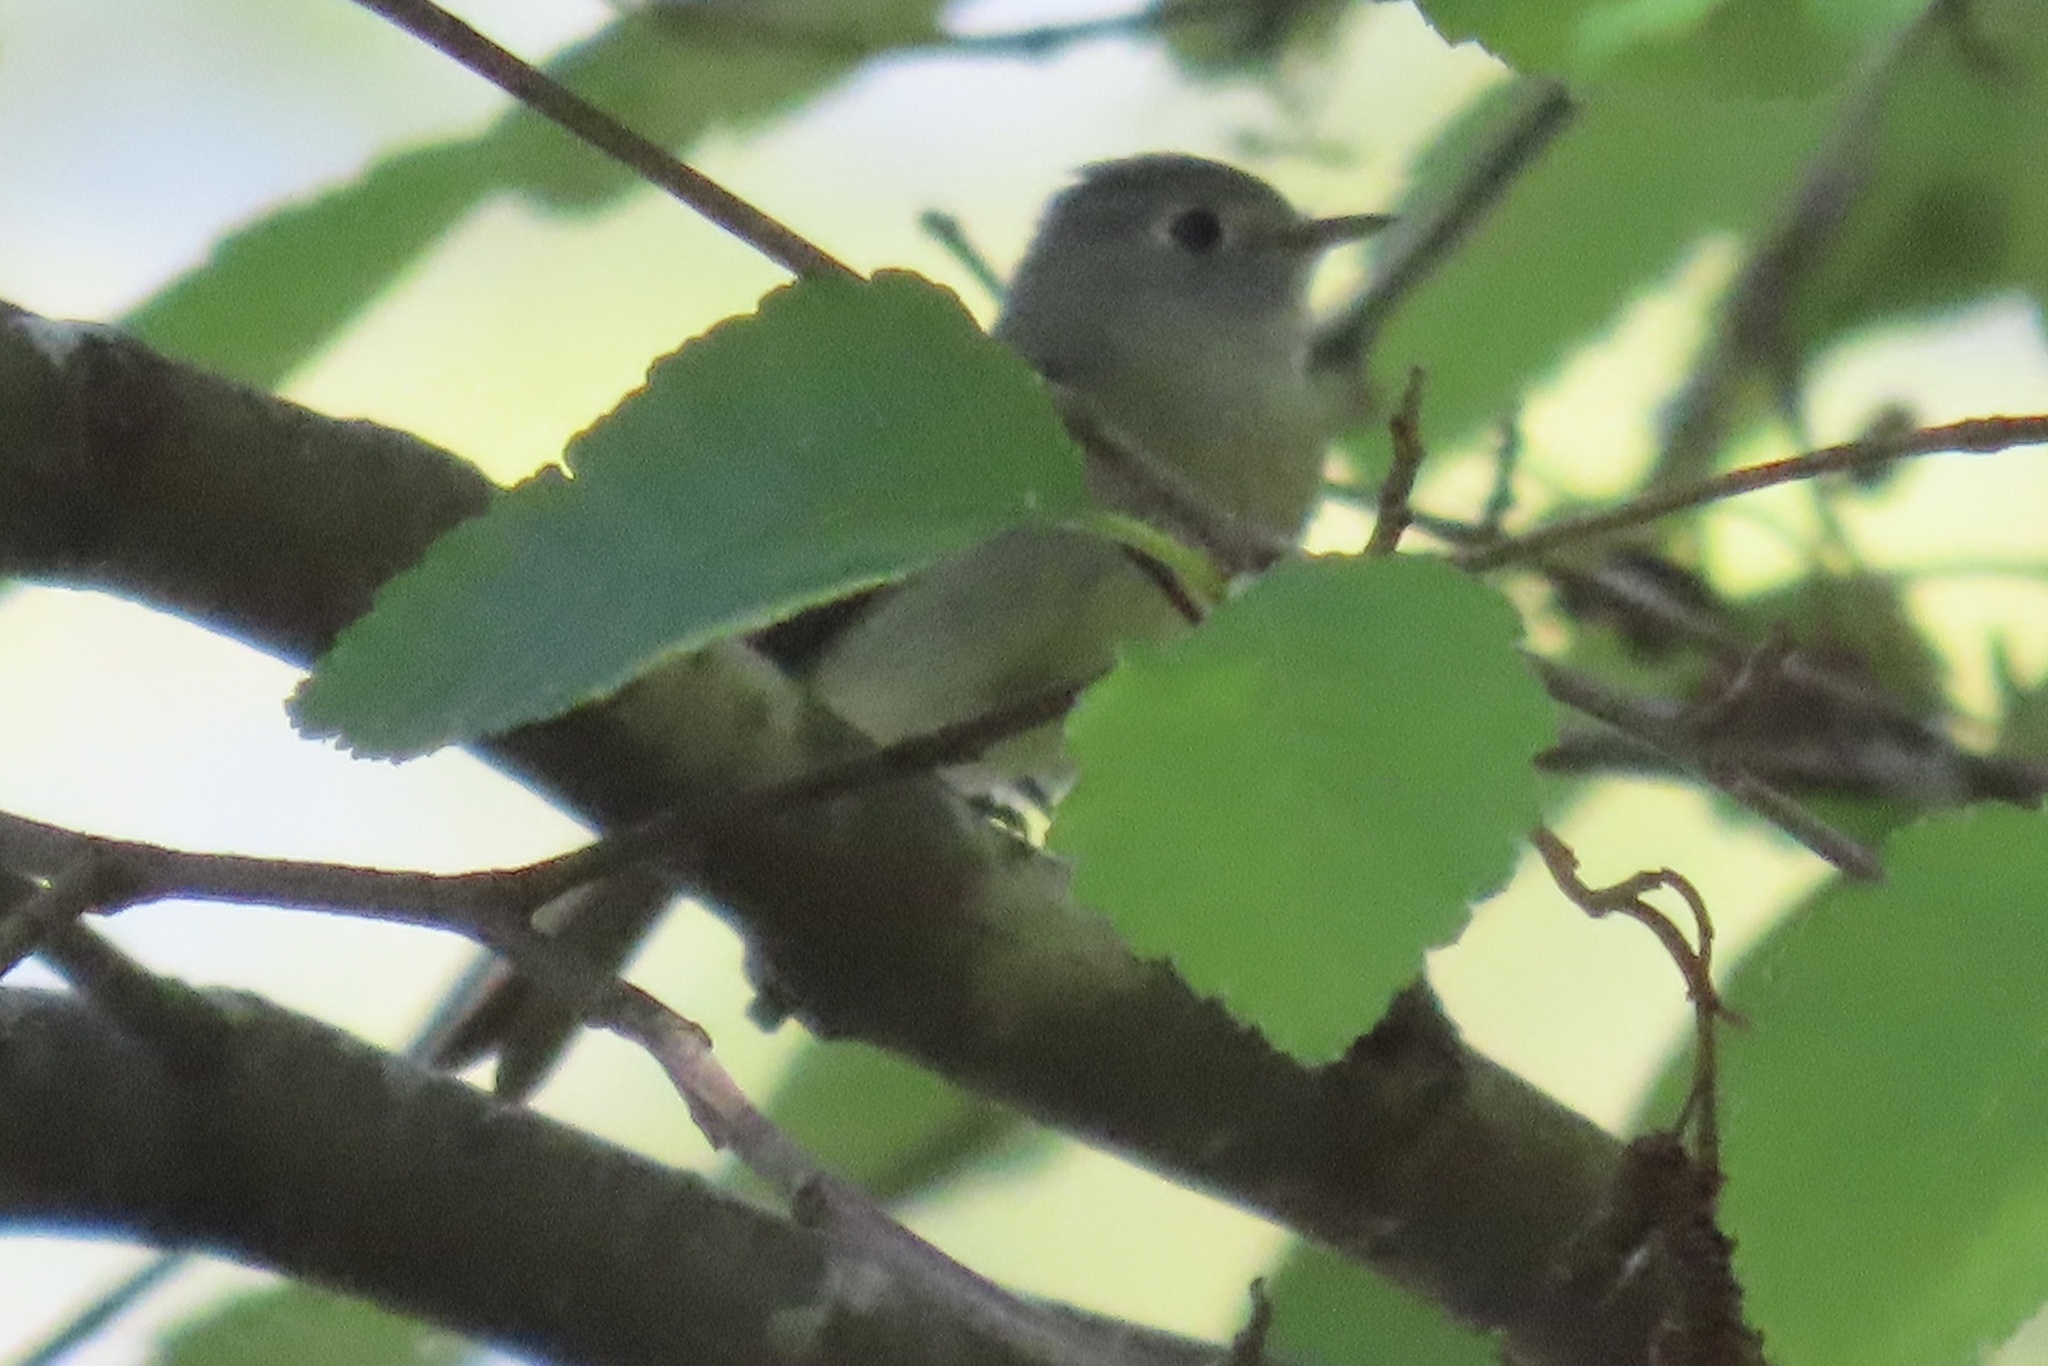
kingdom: Animalia
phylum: Chordata
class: Aves
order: Passeriformes
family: Tyrannidae
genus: Empidonax
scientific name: Empidonax hammondii
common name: Hammond's flycatcher
